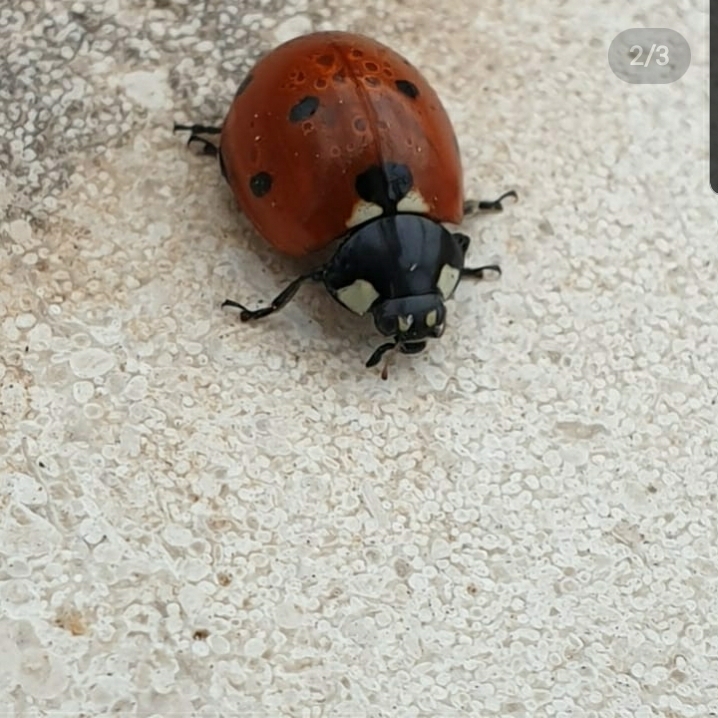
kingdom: Animalia
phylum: Arthropoda
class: Insecta
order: Coleoptera
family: Coccinellidae
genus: Coccinella
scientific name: Coccinella septempunctata
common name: Sevenspotted lady beetle
